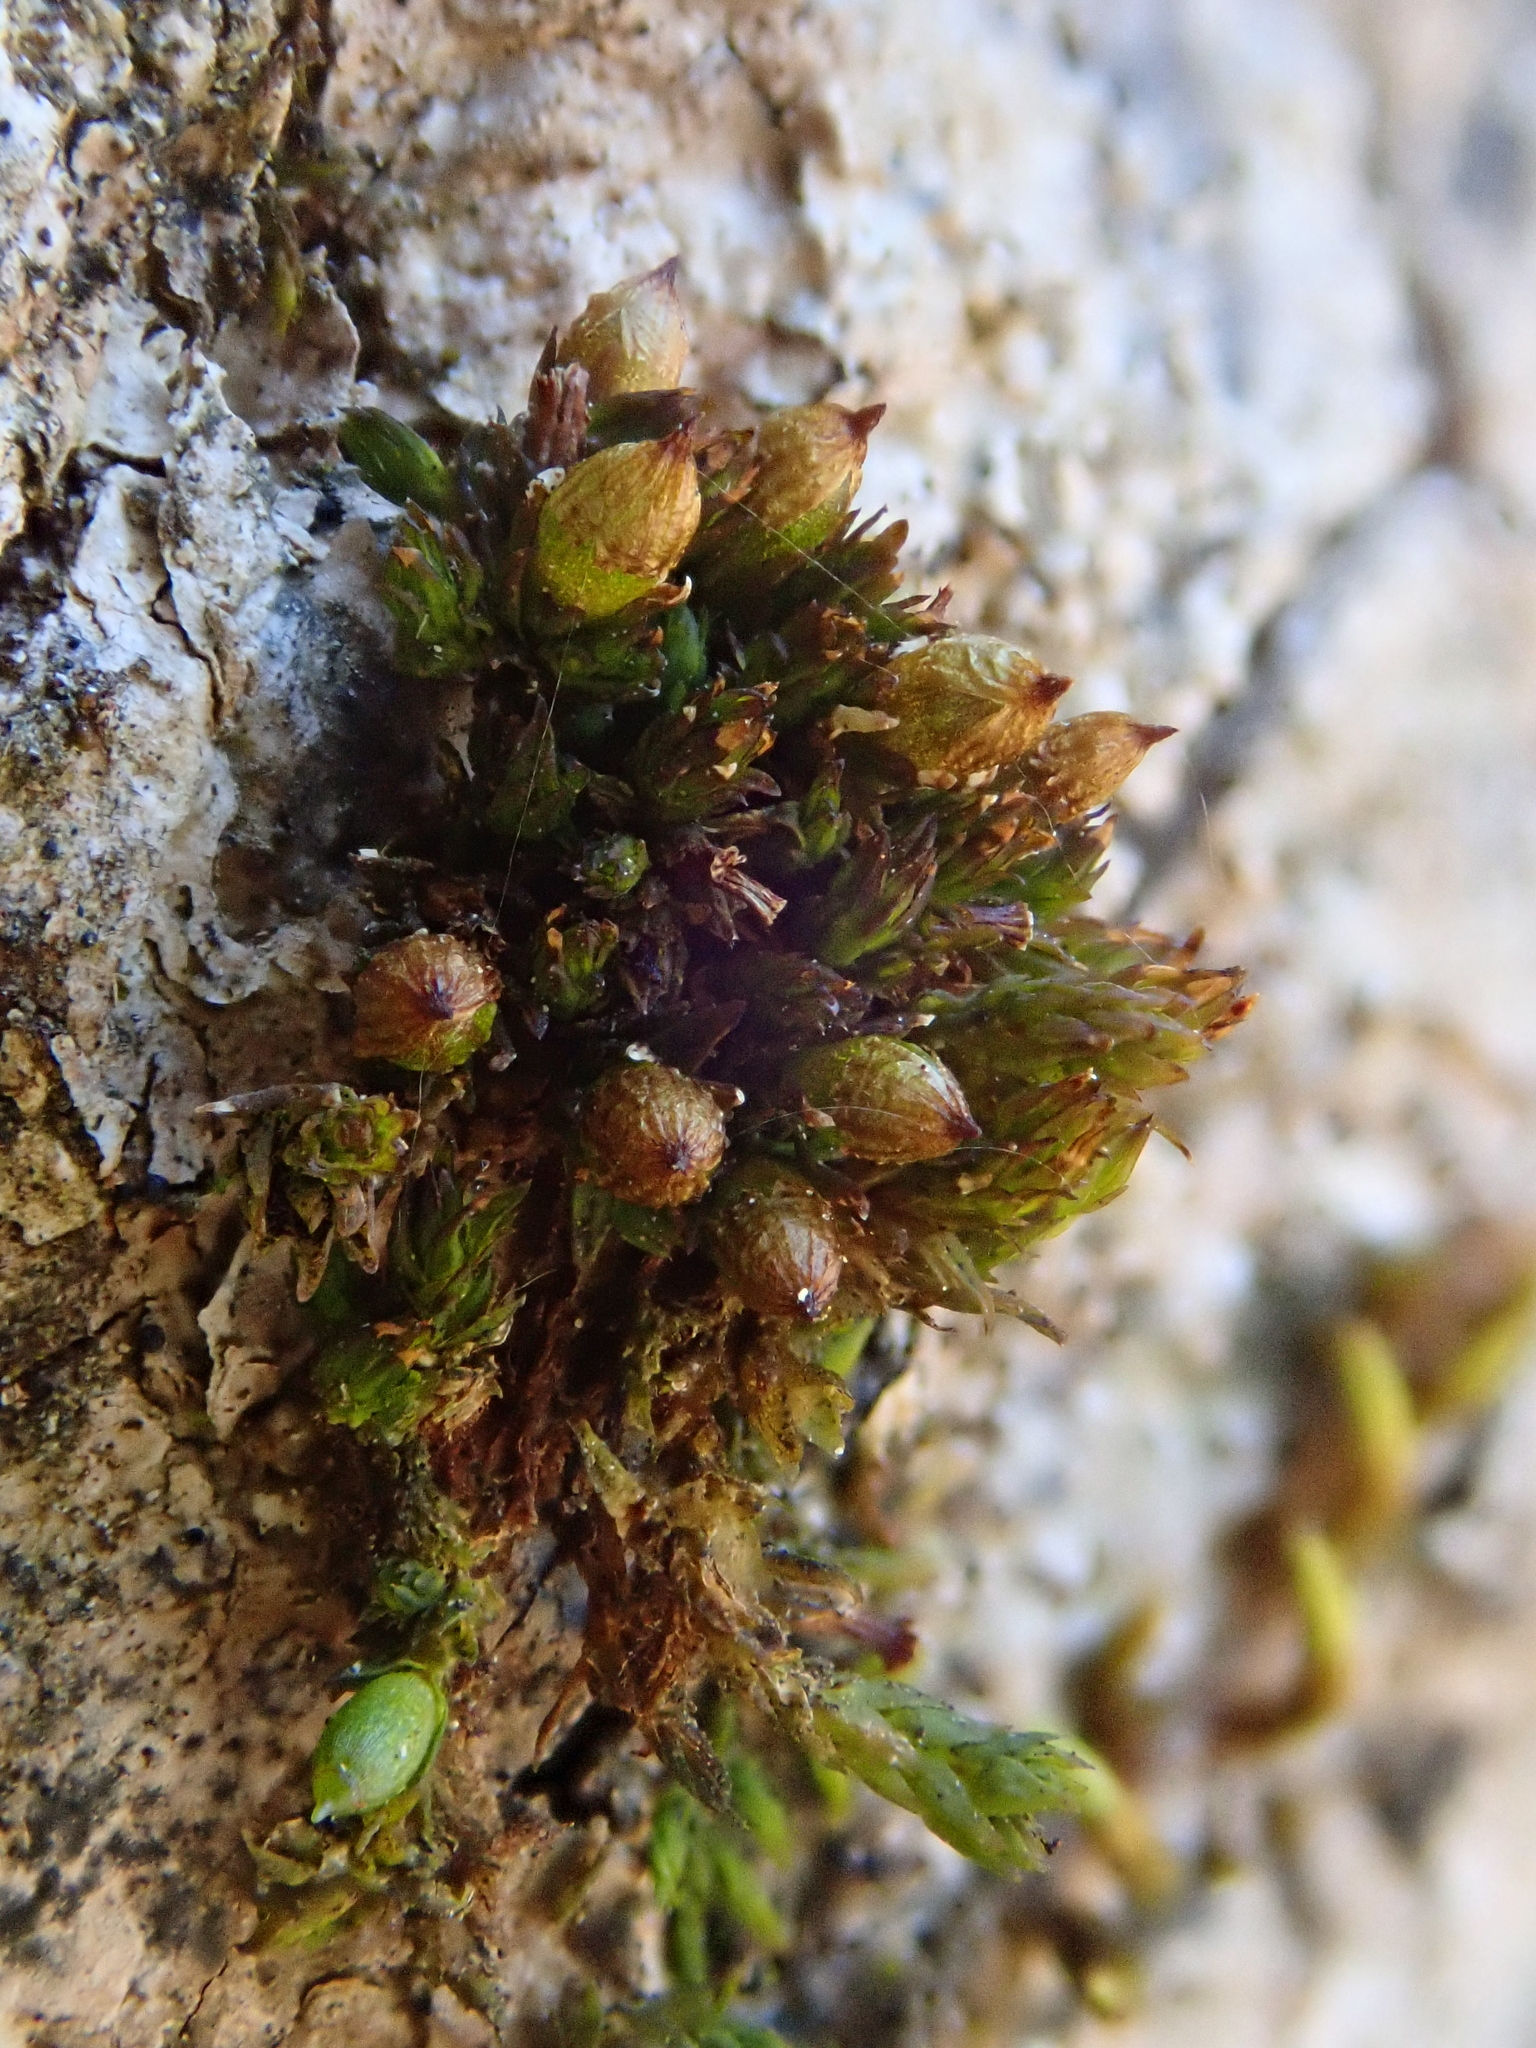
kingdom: Plantae
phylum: Bryophyta
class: Bryopsida
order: Orthotrichales
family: Orthotrichaceae
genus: Orthotrichum
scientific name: Orthotrichum pumilum
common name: Dwarf bristle moss
